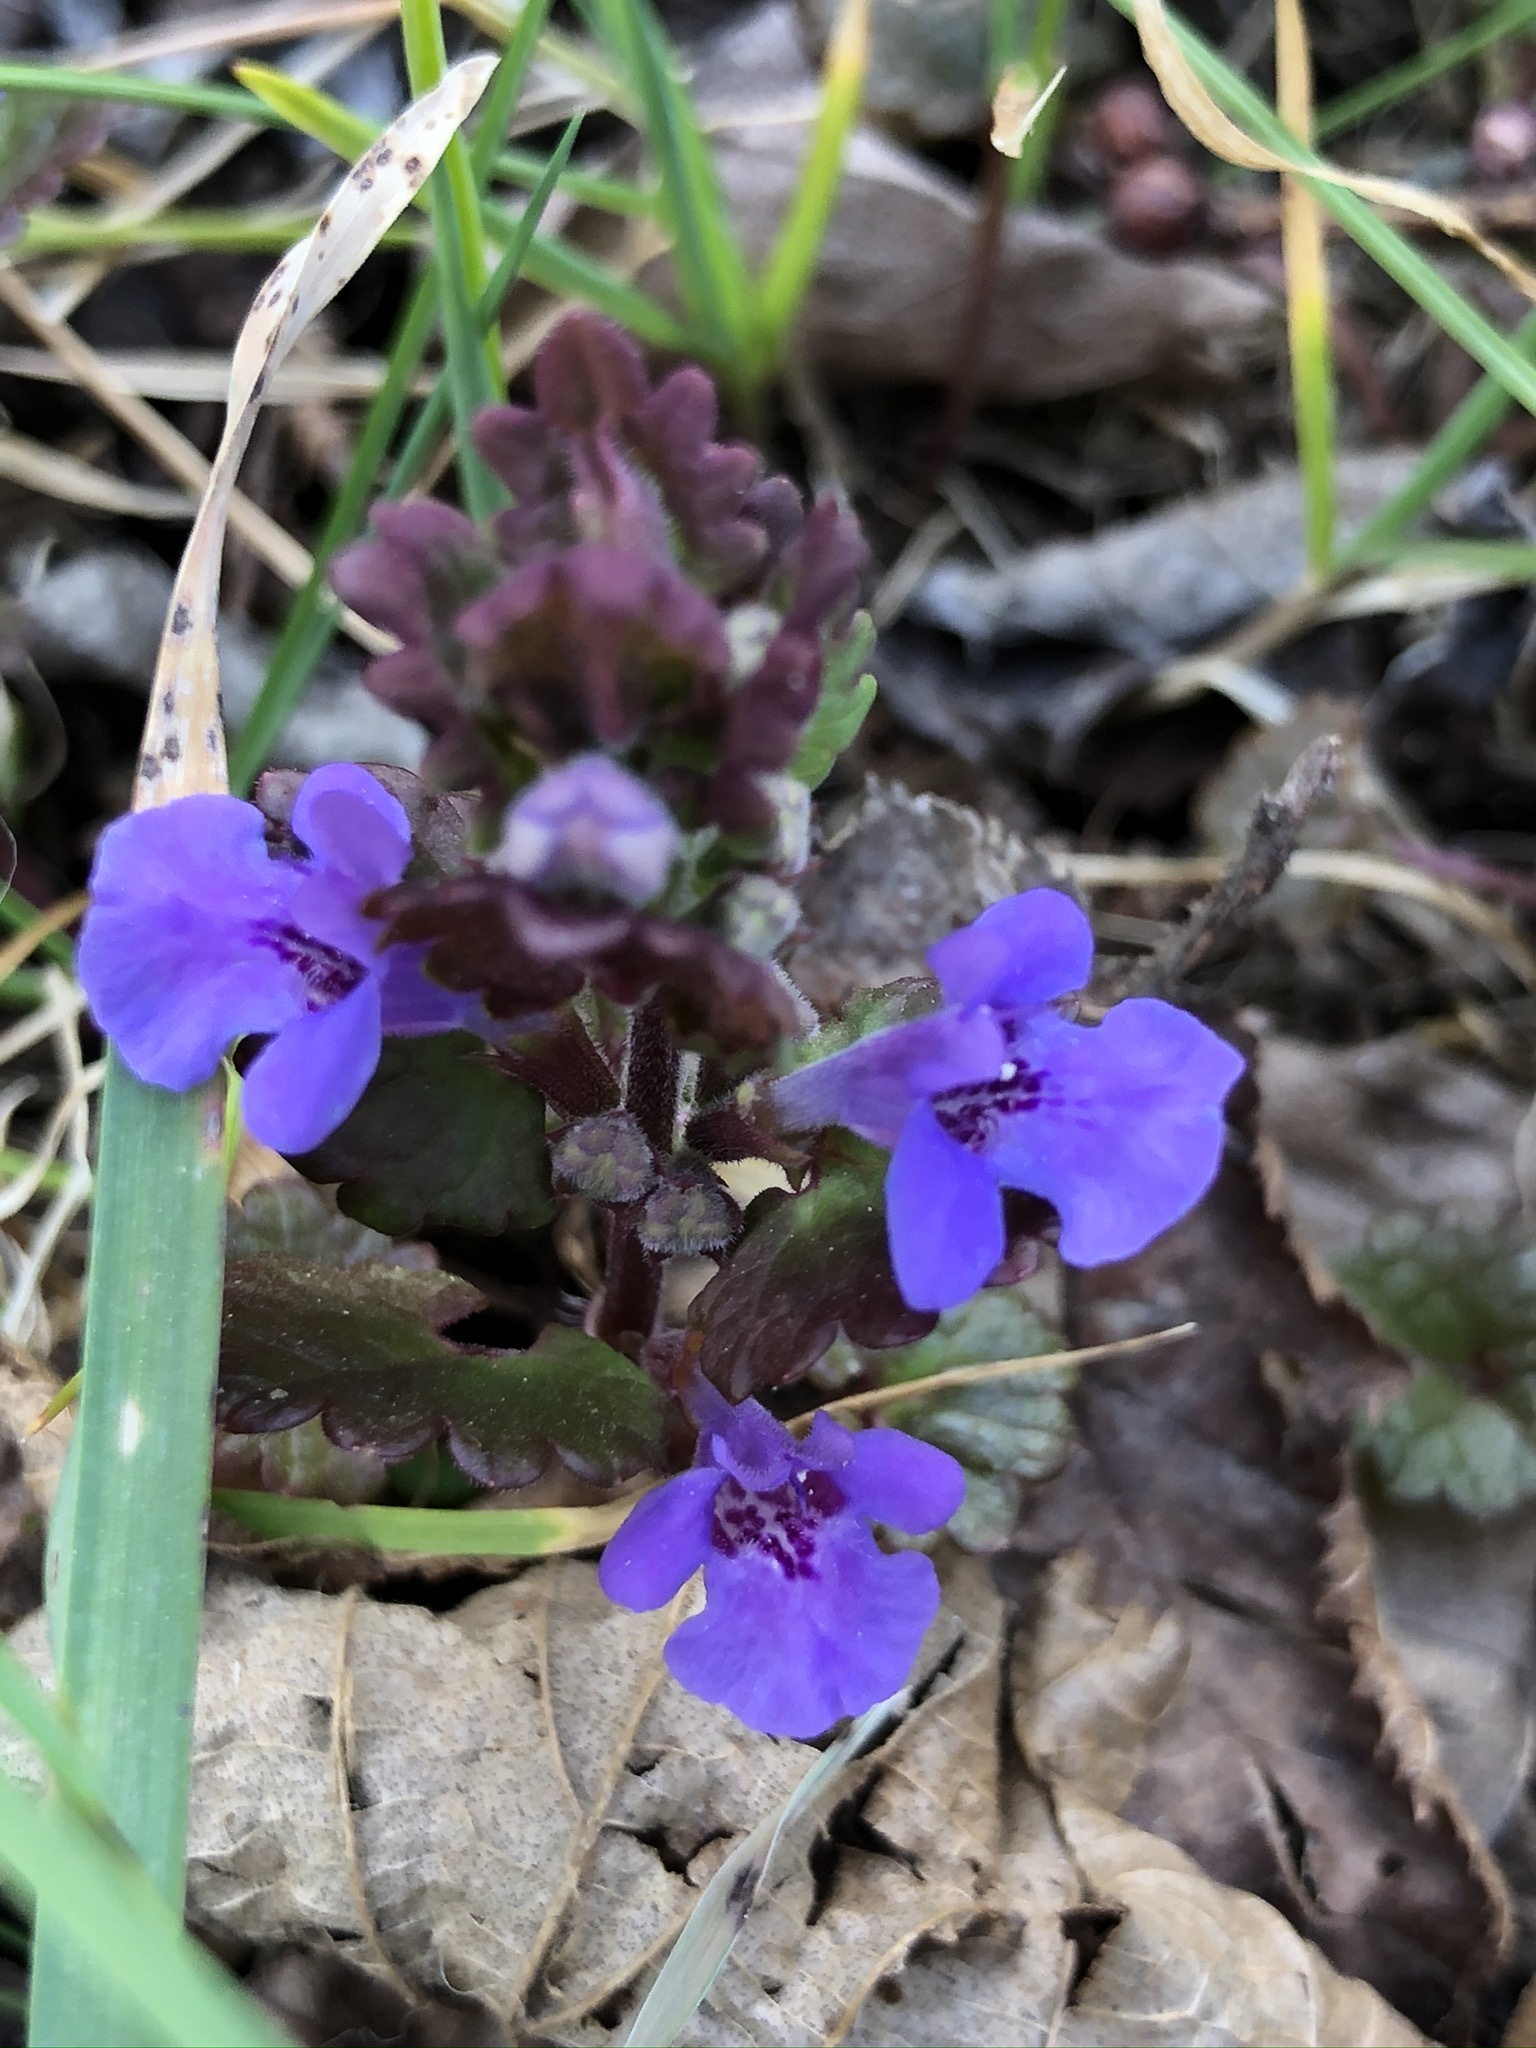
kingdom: Plantae
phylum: Tracheophyta
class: Magnoliopsida
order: Lamiales
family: Lamiaceae
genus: Glechoma
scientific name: Glechoma hederacea
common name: Ground ivy
